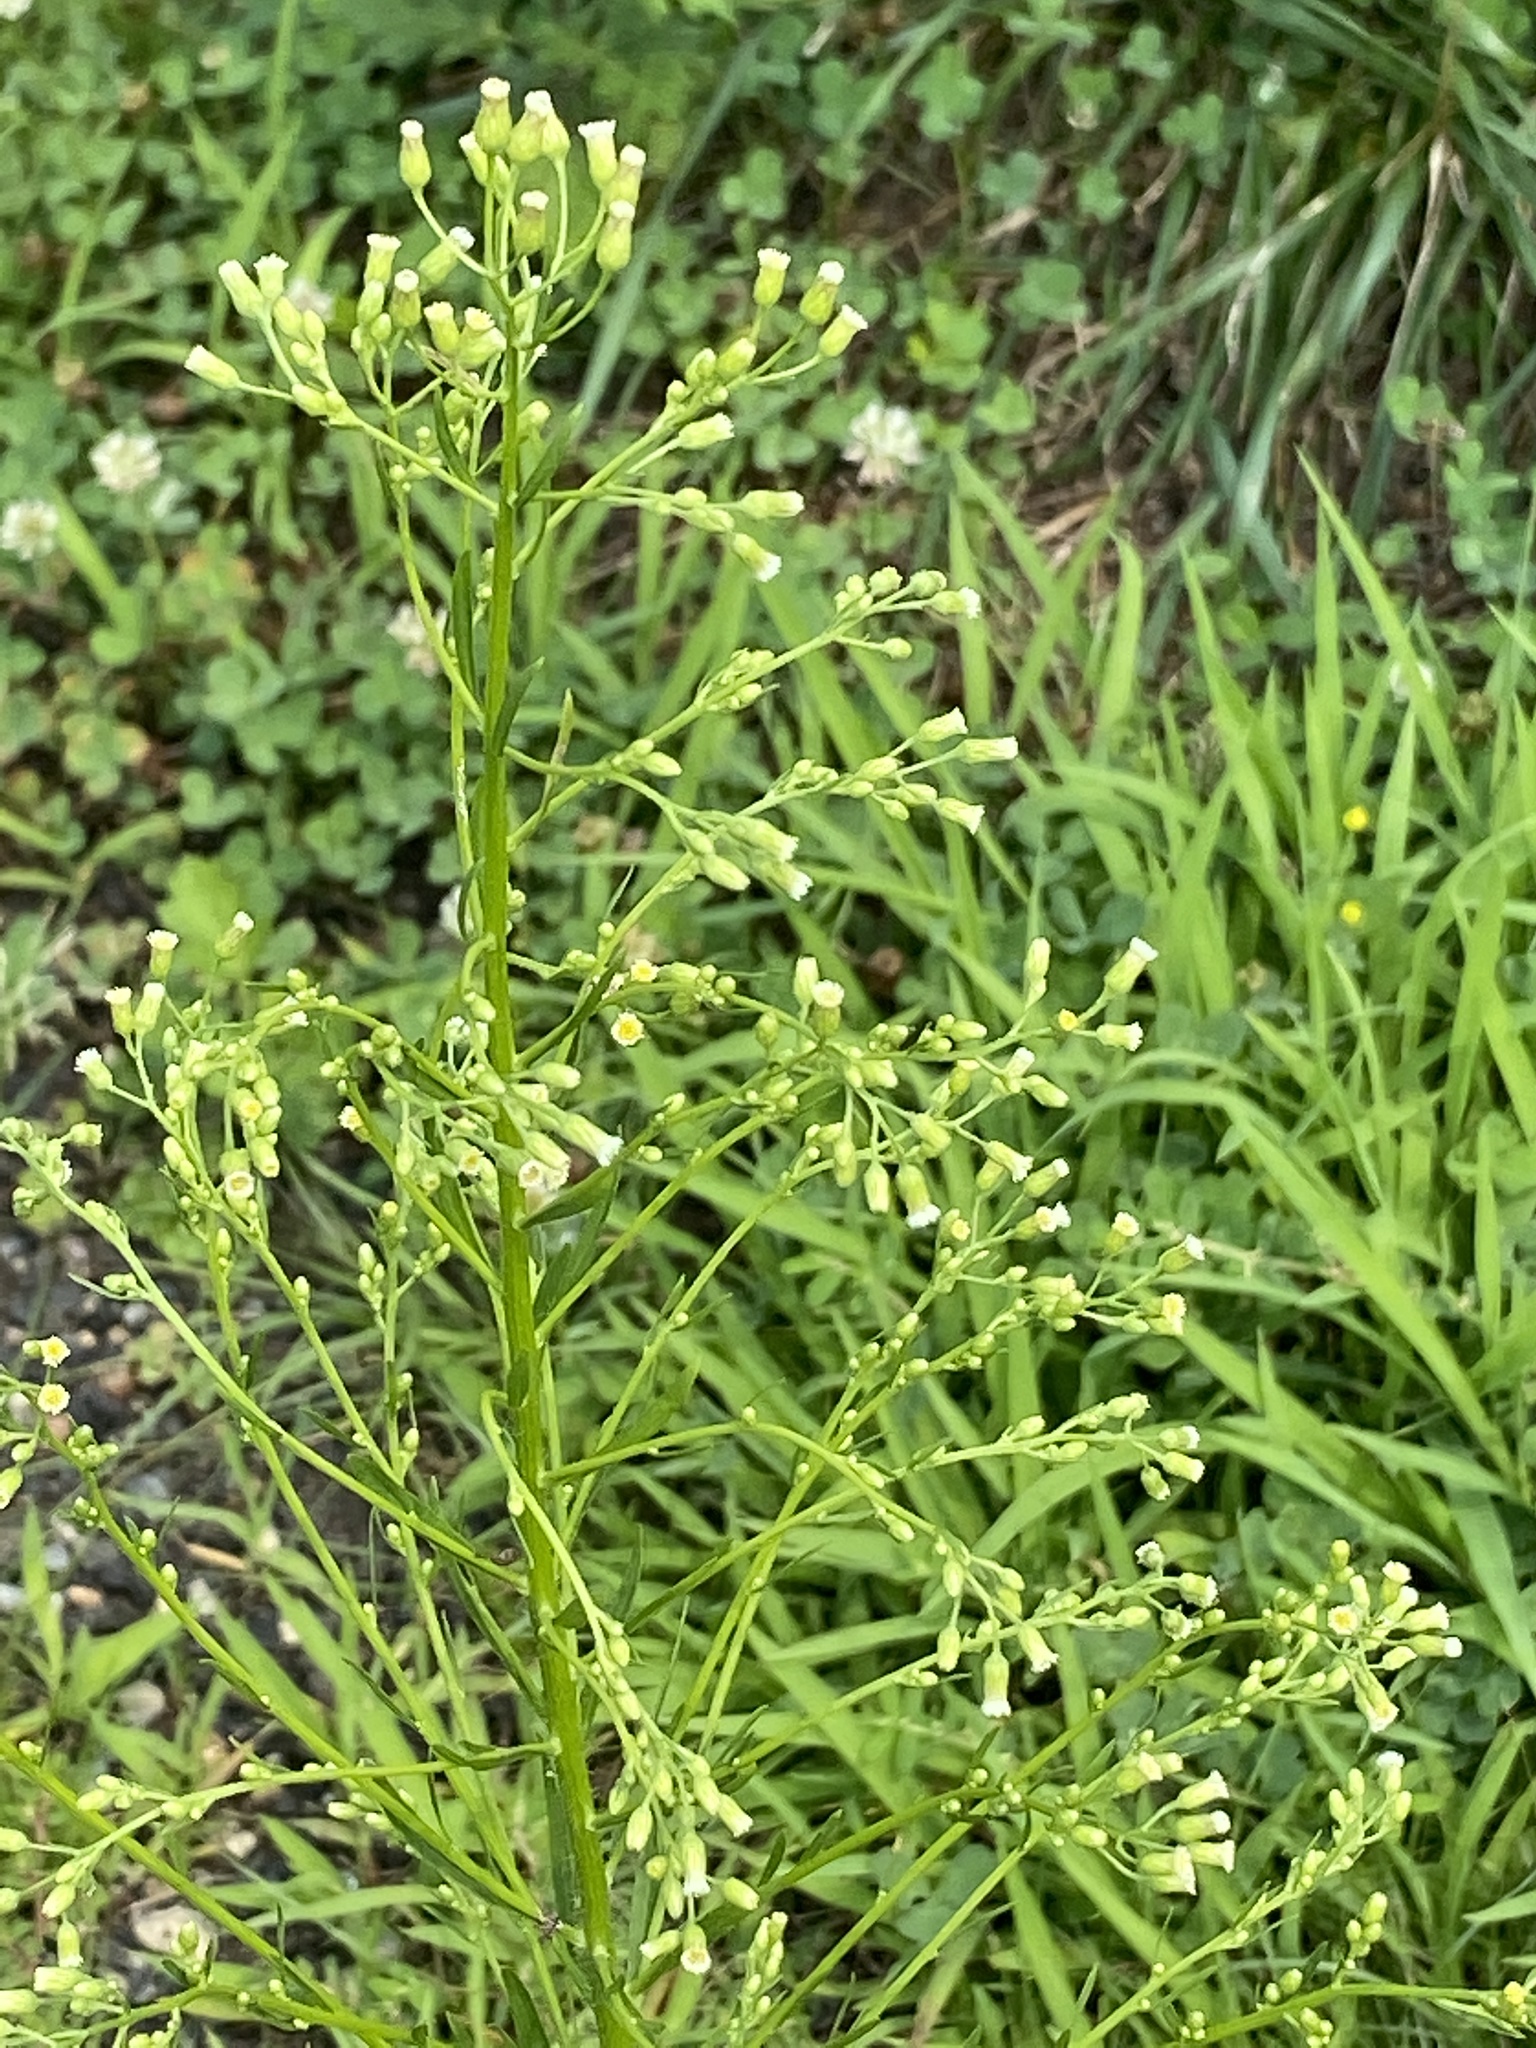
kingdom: Plantae
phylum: Tracheophyta
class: Magnoliopsida
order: Asterales
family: Asteraceae
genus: Erigeron
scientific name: Erigeron canadensis
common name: Canadian fleabane
